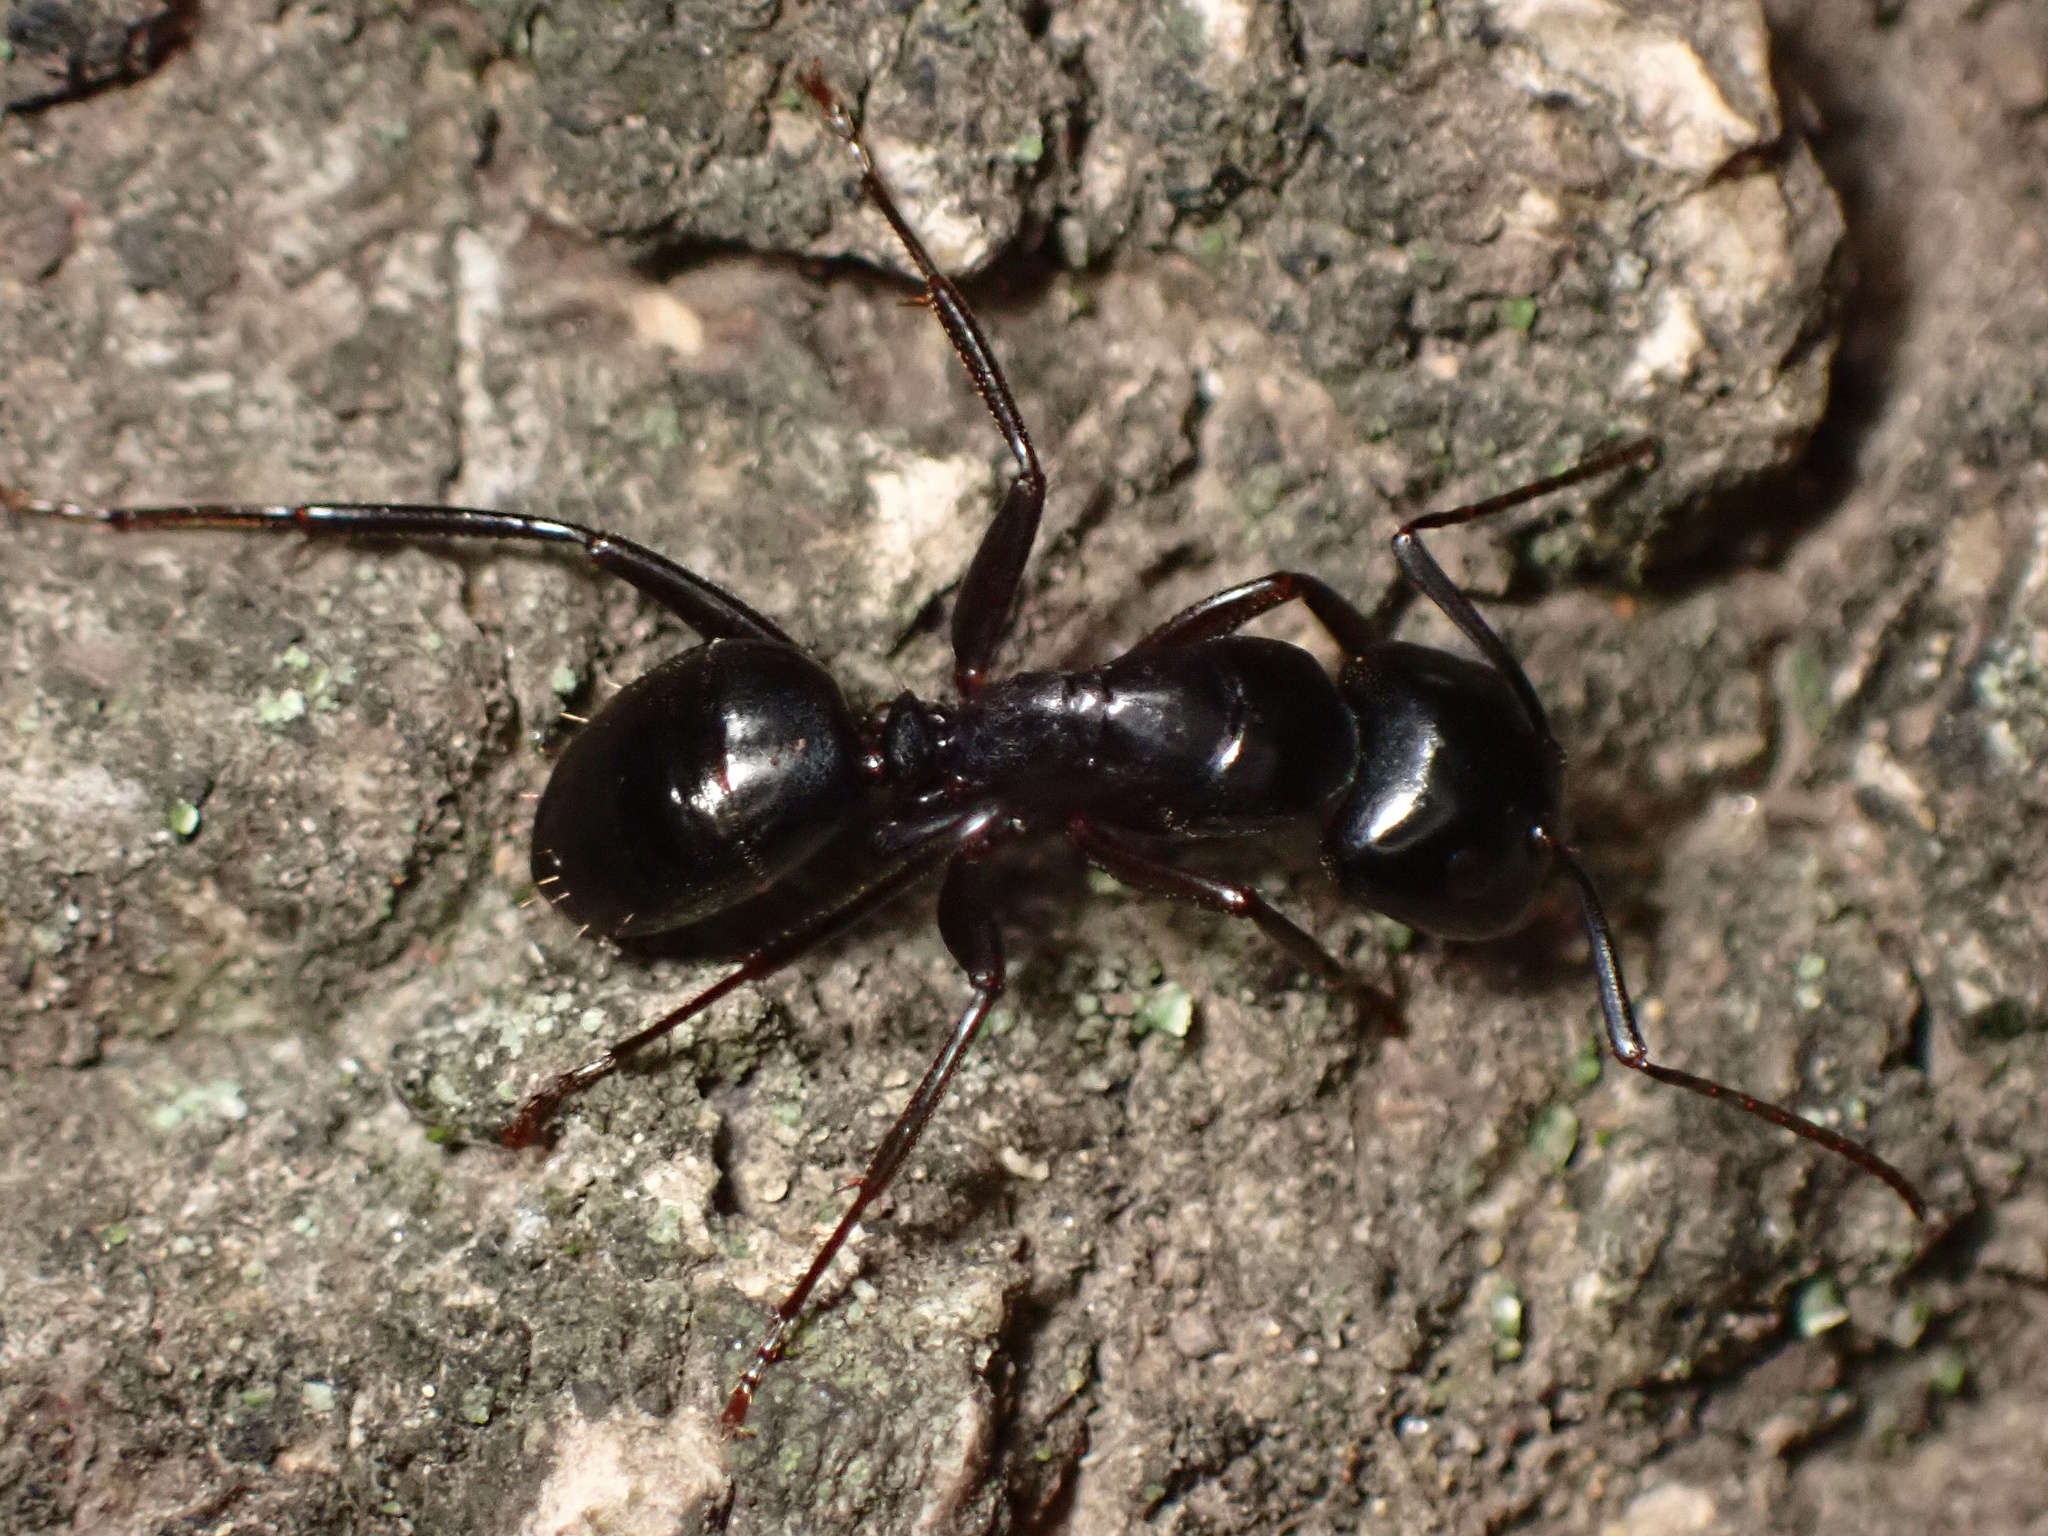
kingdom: Animalia
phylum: Arthropoda
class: Insecta
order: Hymenoptera
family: Formicidae
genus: Camponotus
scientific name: Camponotus laevigatus
